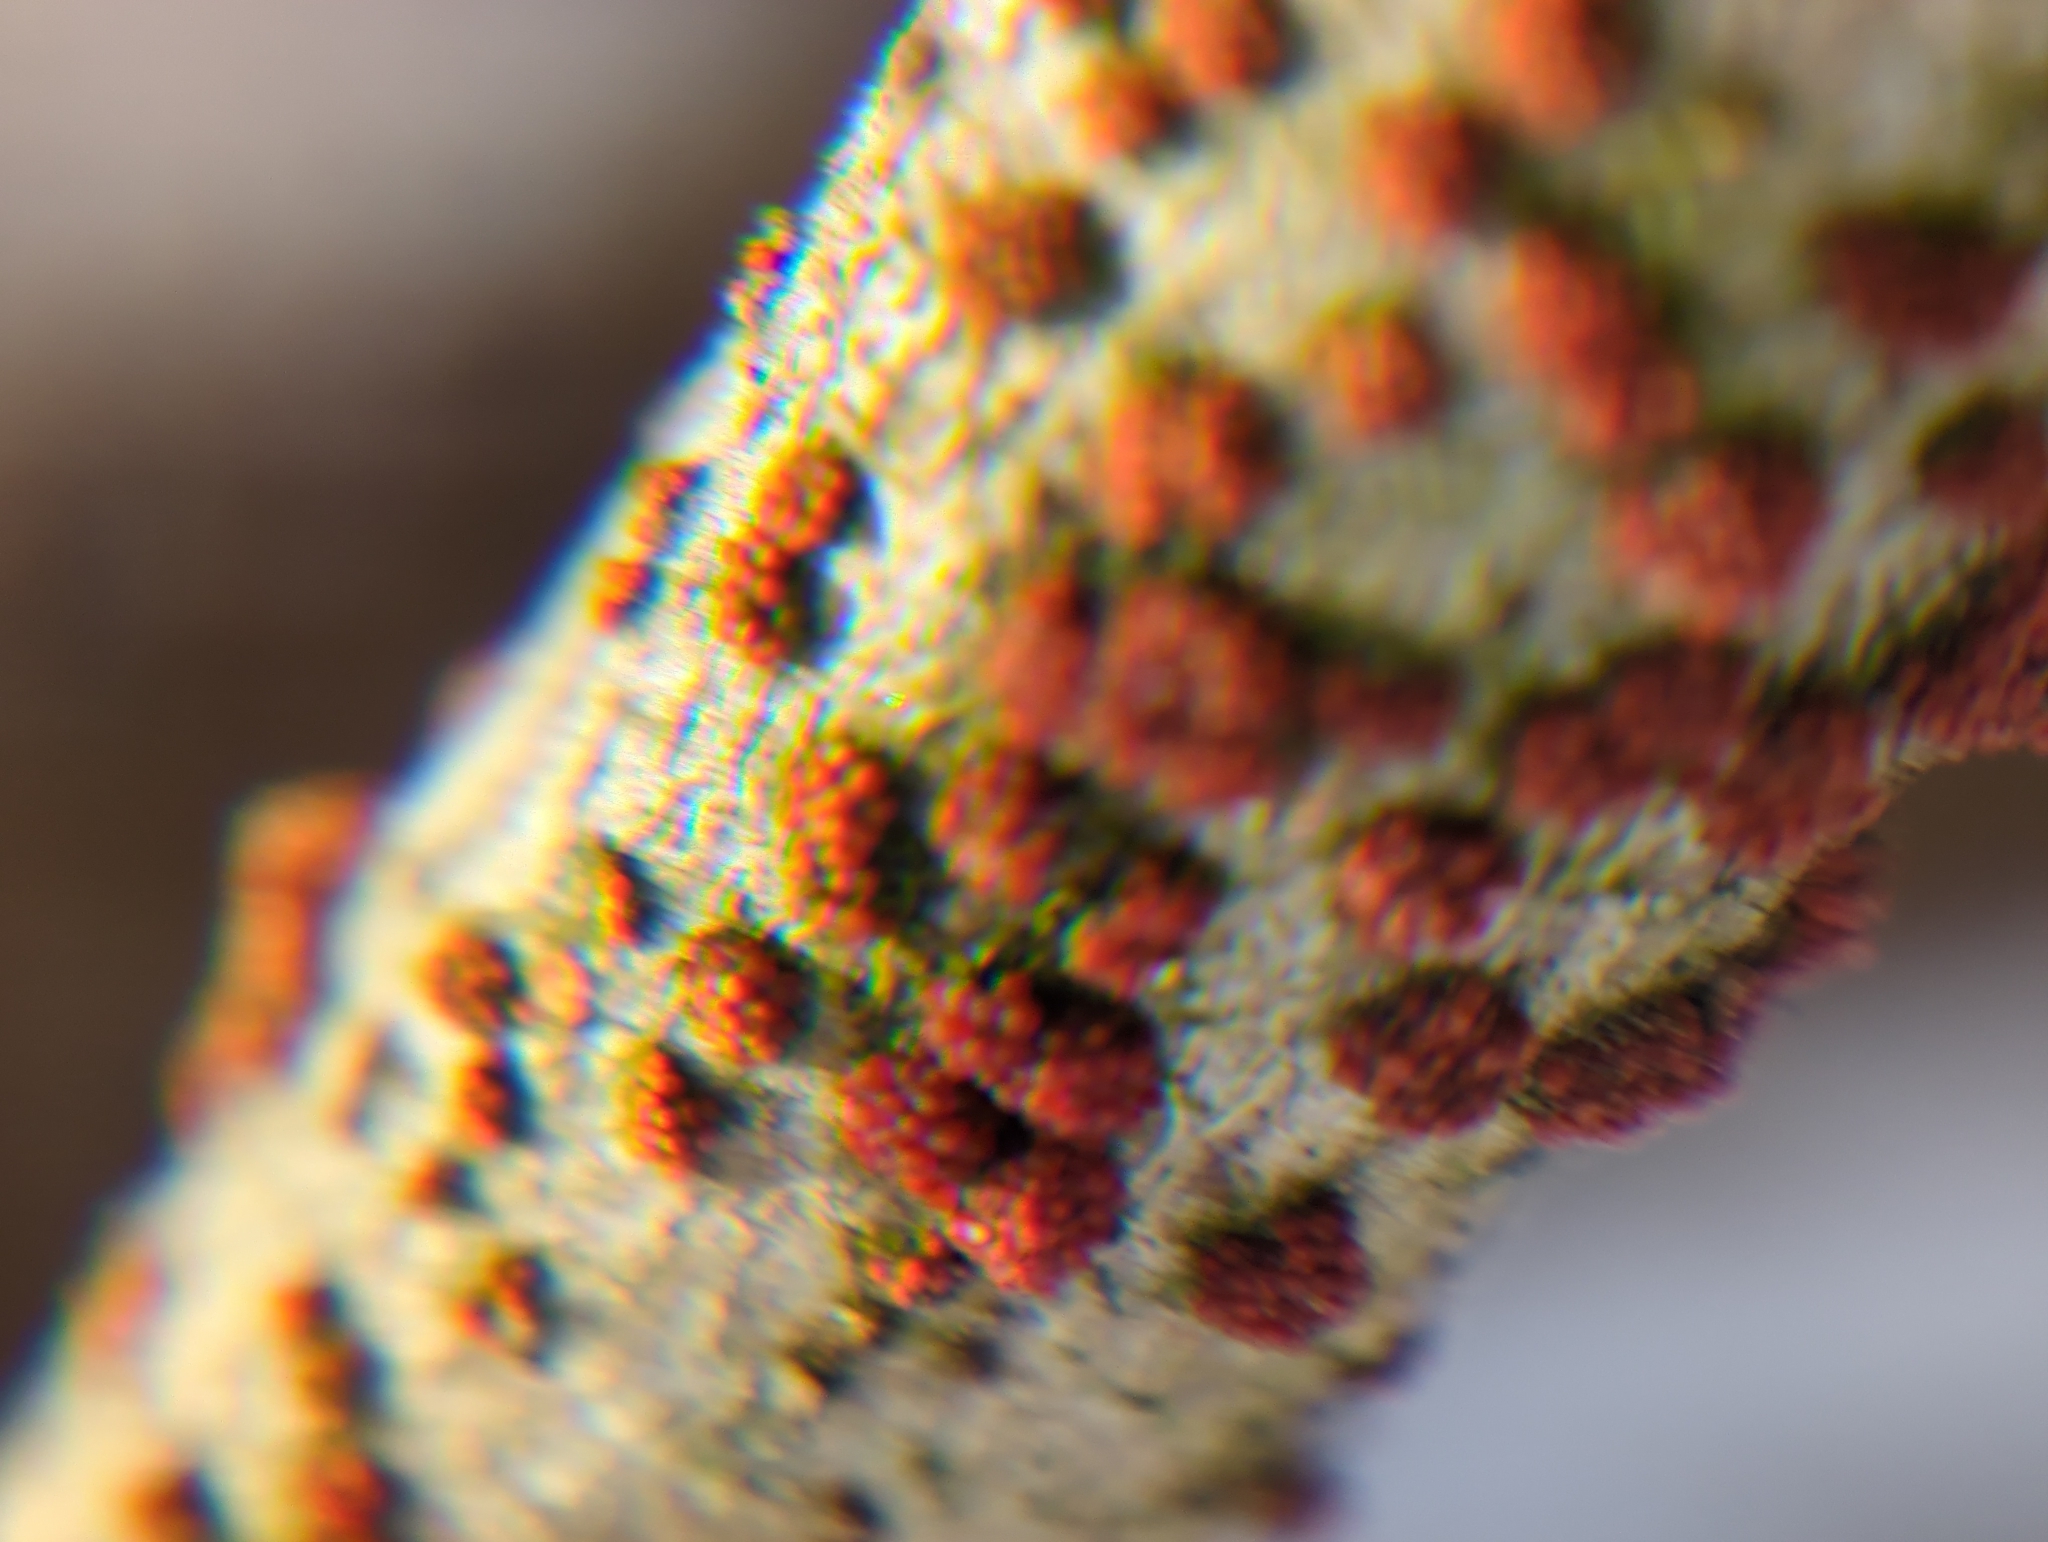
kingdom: Fungi
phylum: Ascomycota
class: Sordariomycetes
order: Hypocreales
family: Nectriaceae
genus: Nectria
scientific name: Nectria cinnabarina
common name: Coral spot
